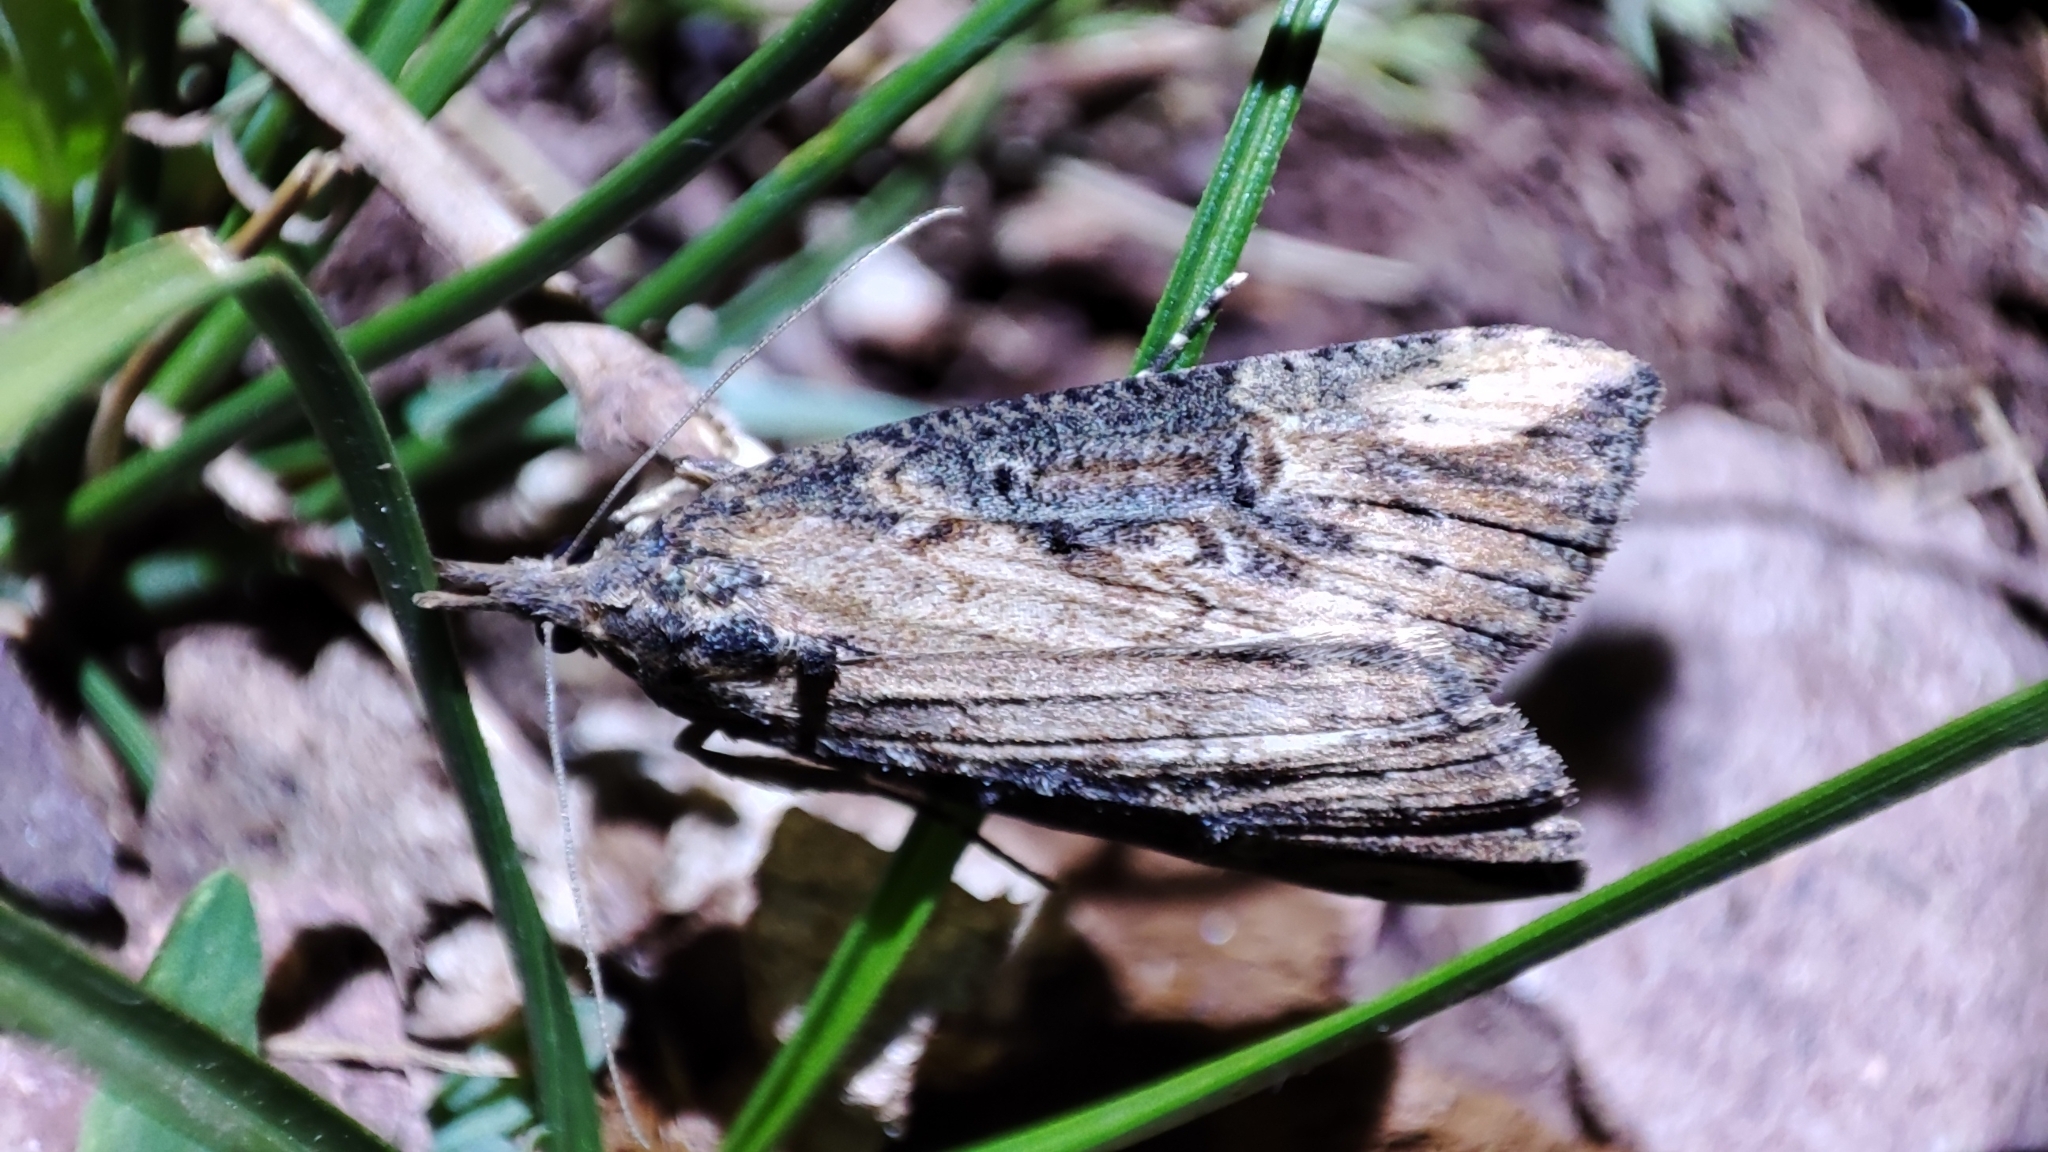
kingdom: Animalia
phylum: Arthropoda
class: Insecta
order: Lepidoptera
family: Erebidae
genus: Hypena
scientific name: Hypena obesalis
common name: Paignton snout
